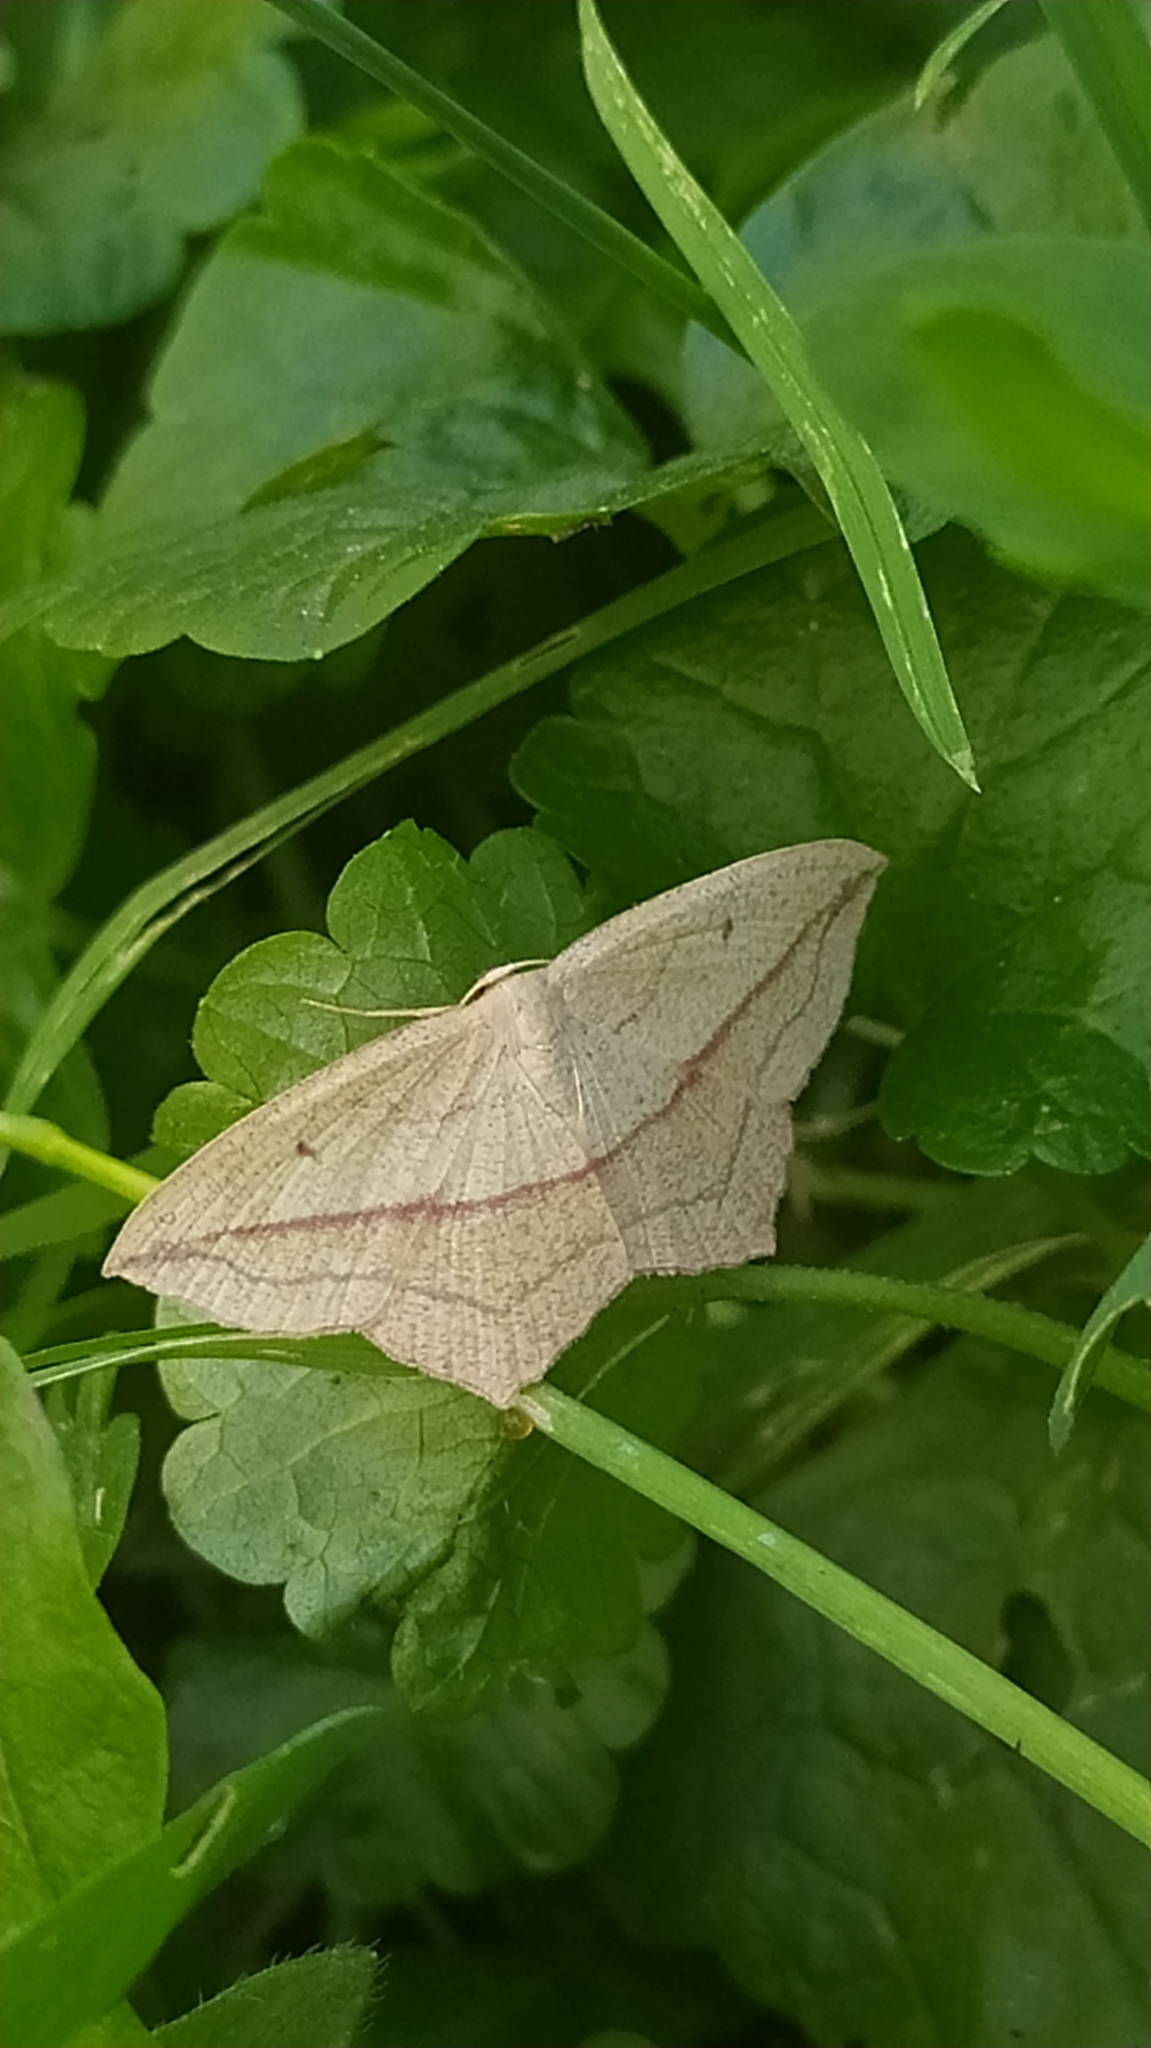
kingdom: Animalia
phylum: Arthropoda
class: Insecta
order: Lepidoptera
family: Geometridae
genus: Timandra
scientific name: Timandra comae
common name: Blood-vein
